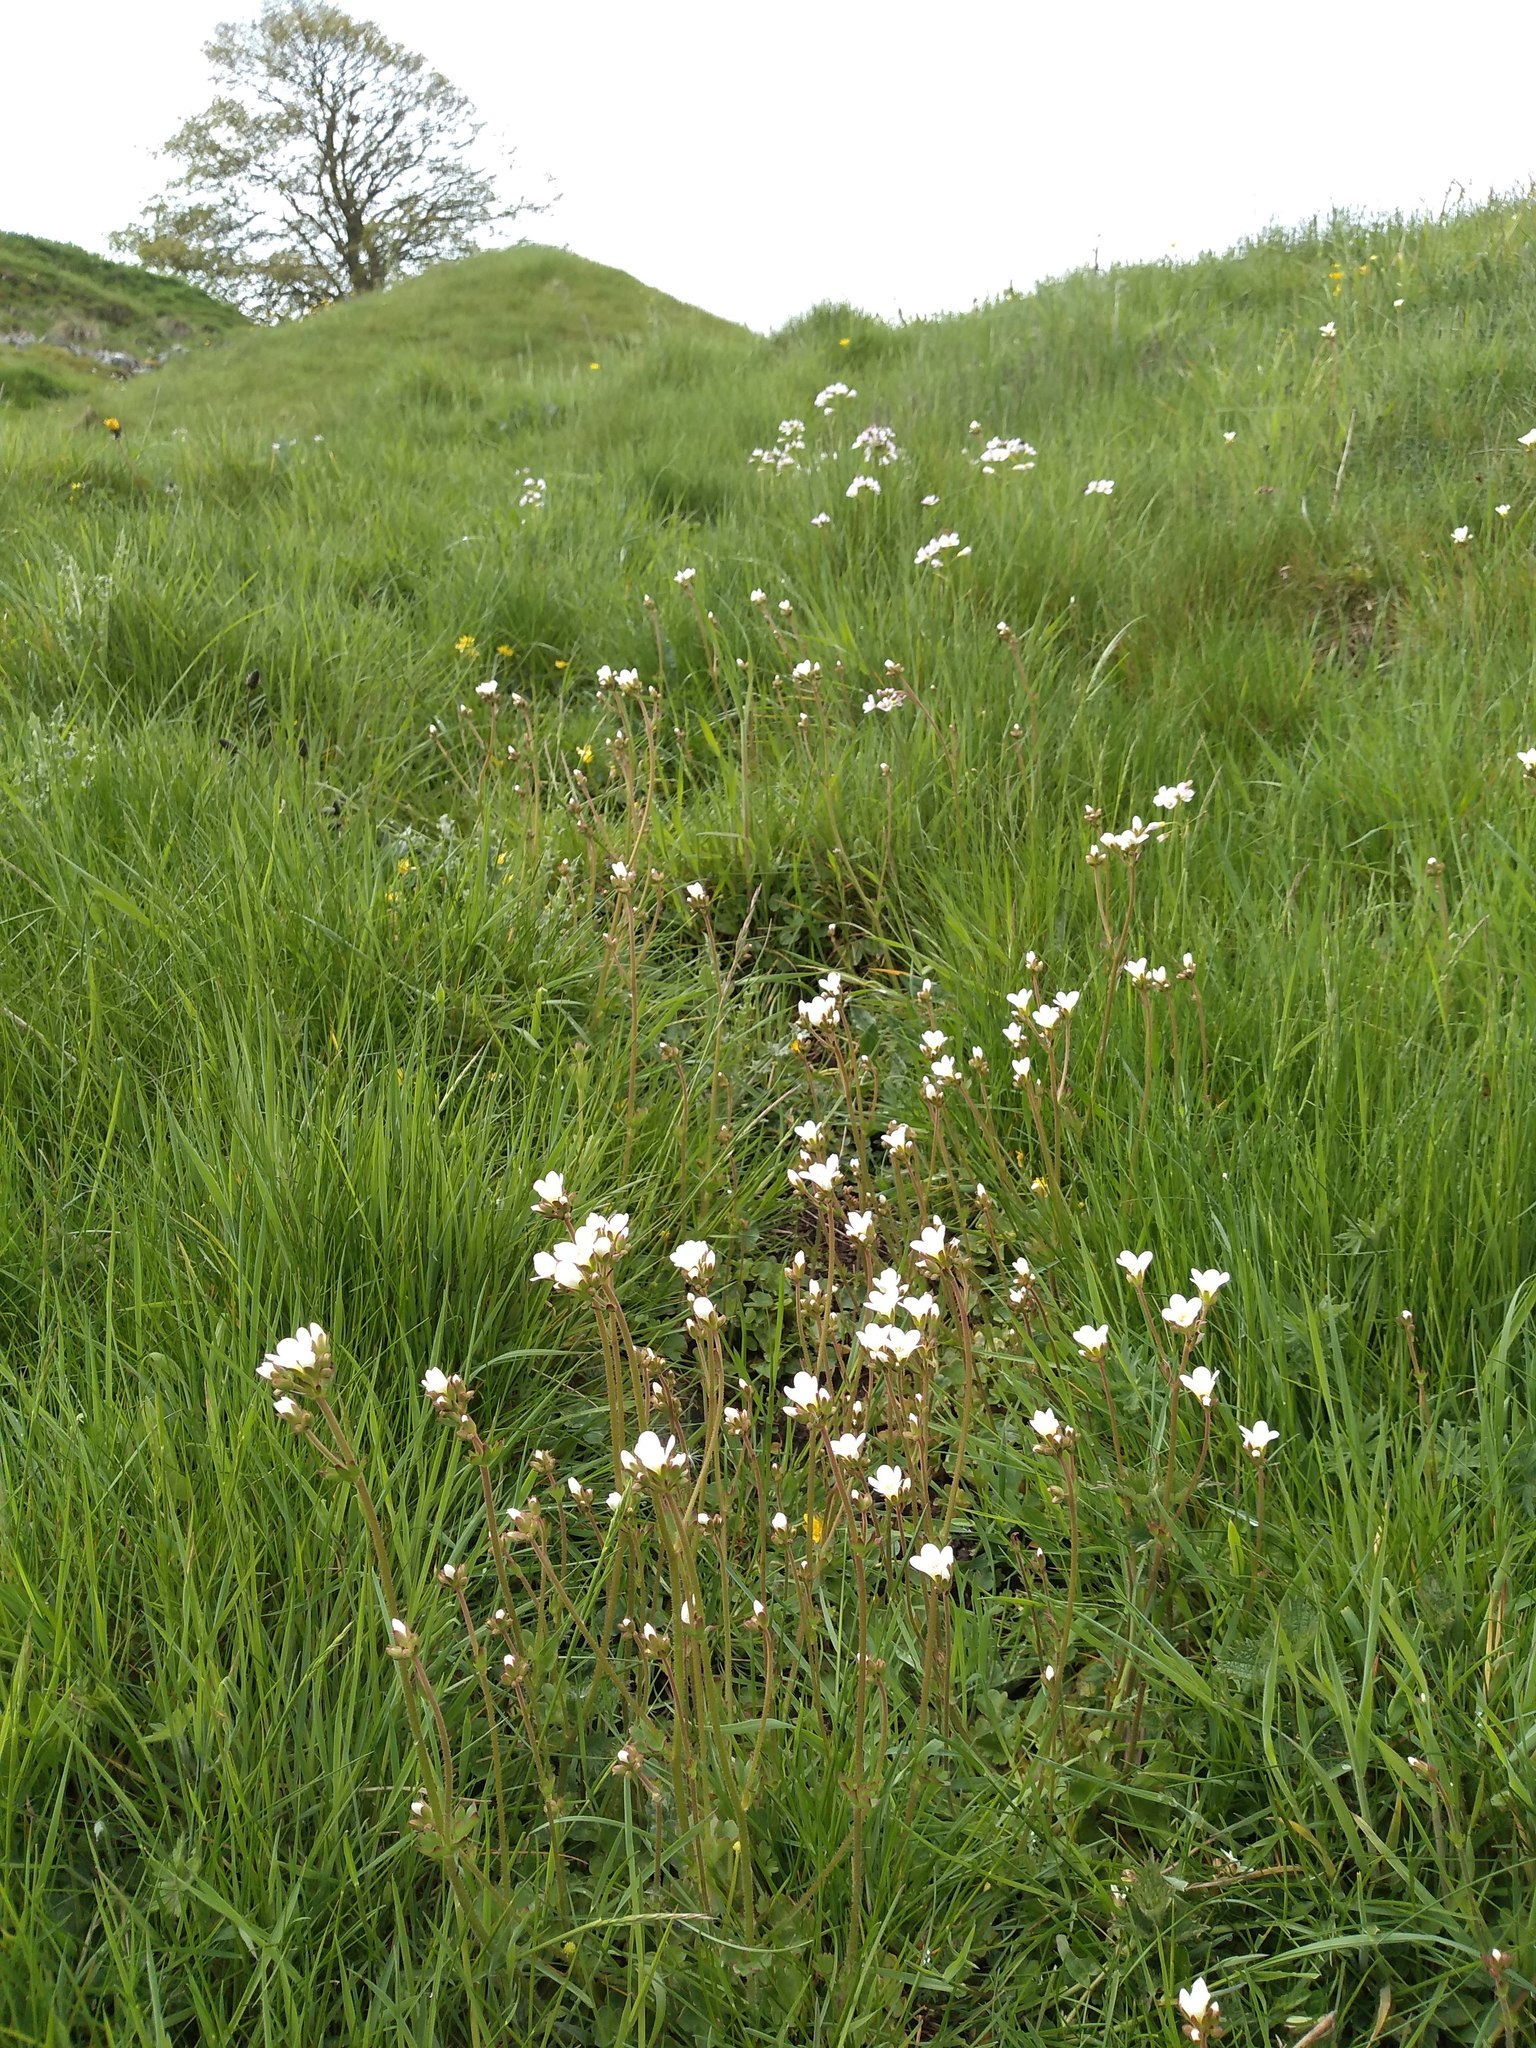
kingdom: Plantae
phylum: Tracheophyta
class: Magnoliopsida
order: Saxifragales
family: Saxifragaceae
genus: Saxifraga
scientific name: Saxifraga granulata
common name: Meadow saxifrage
